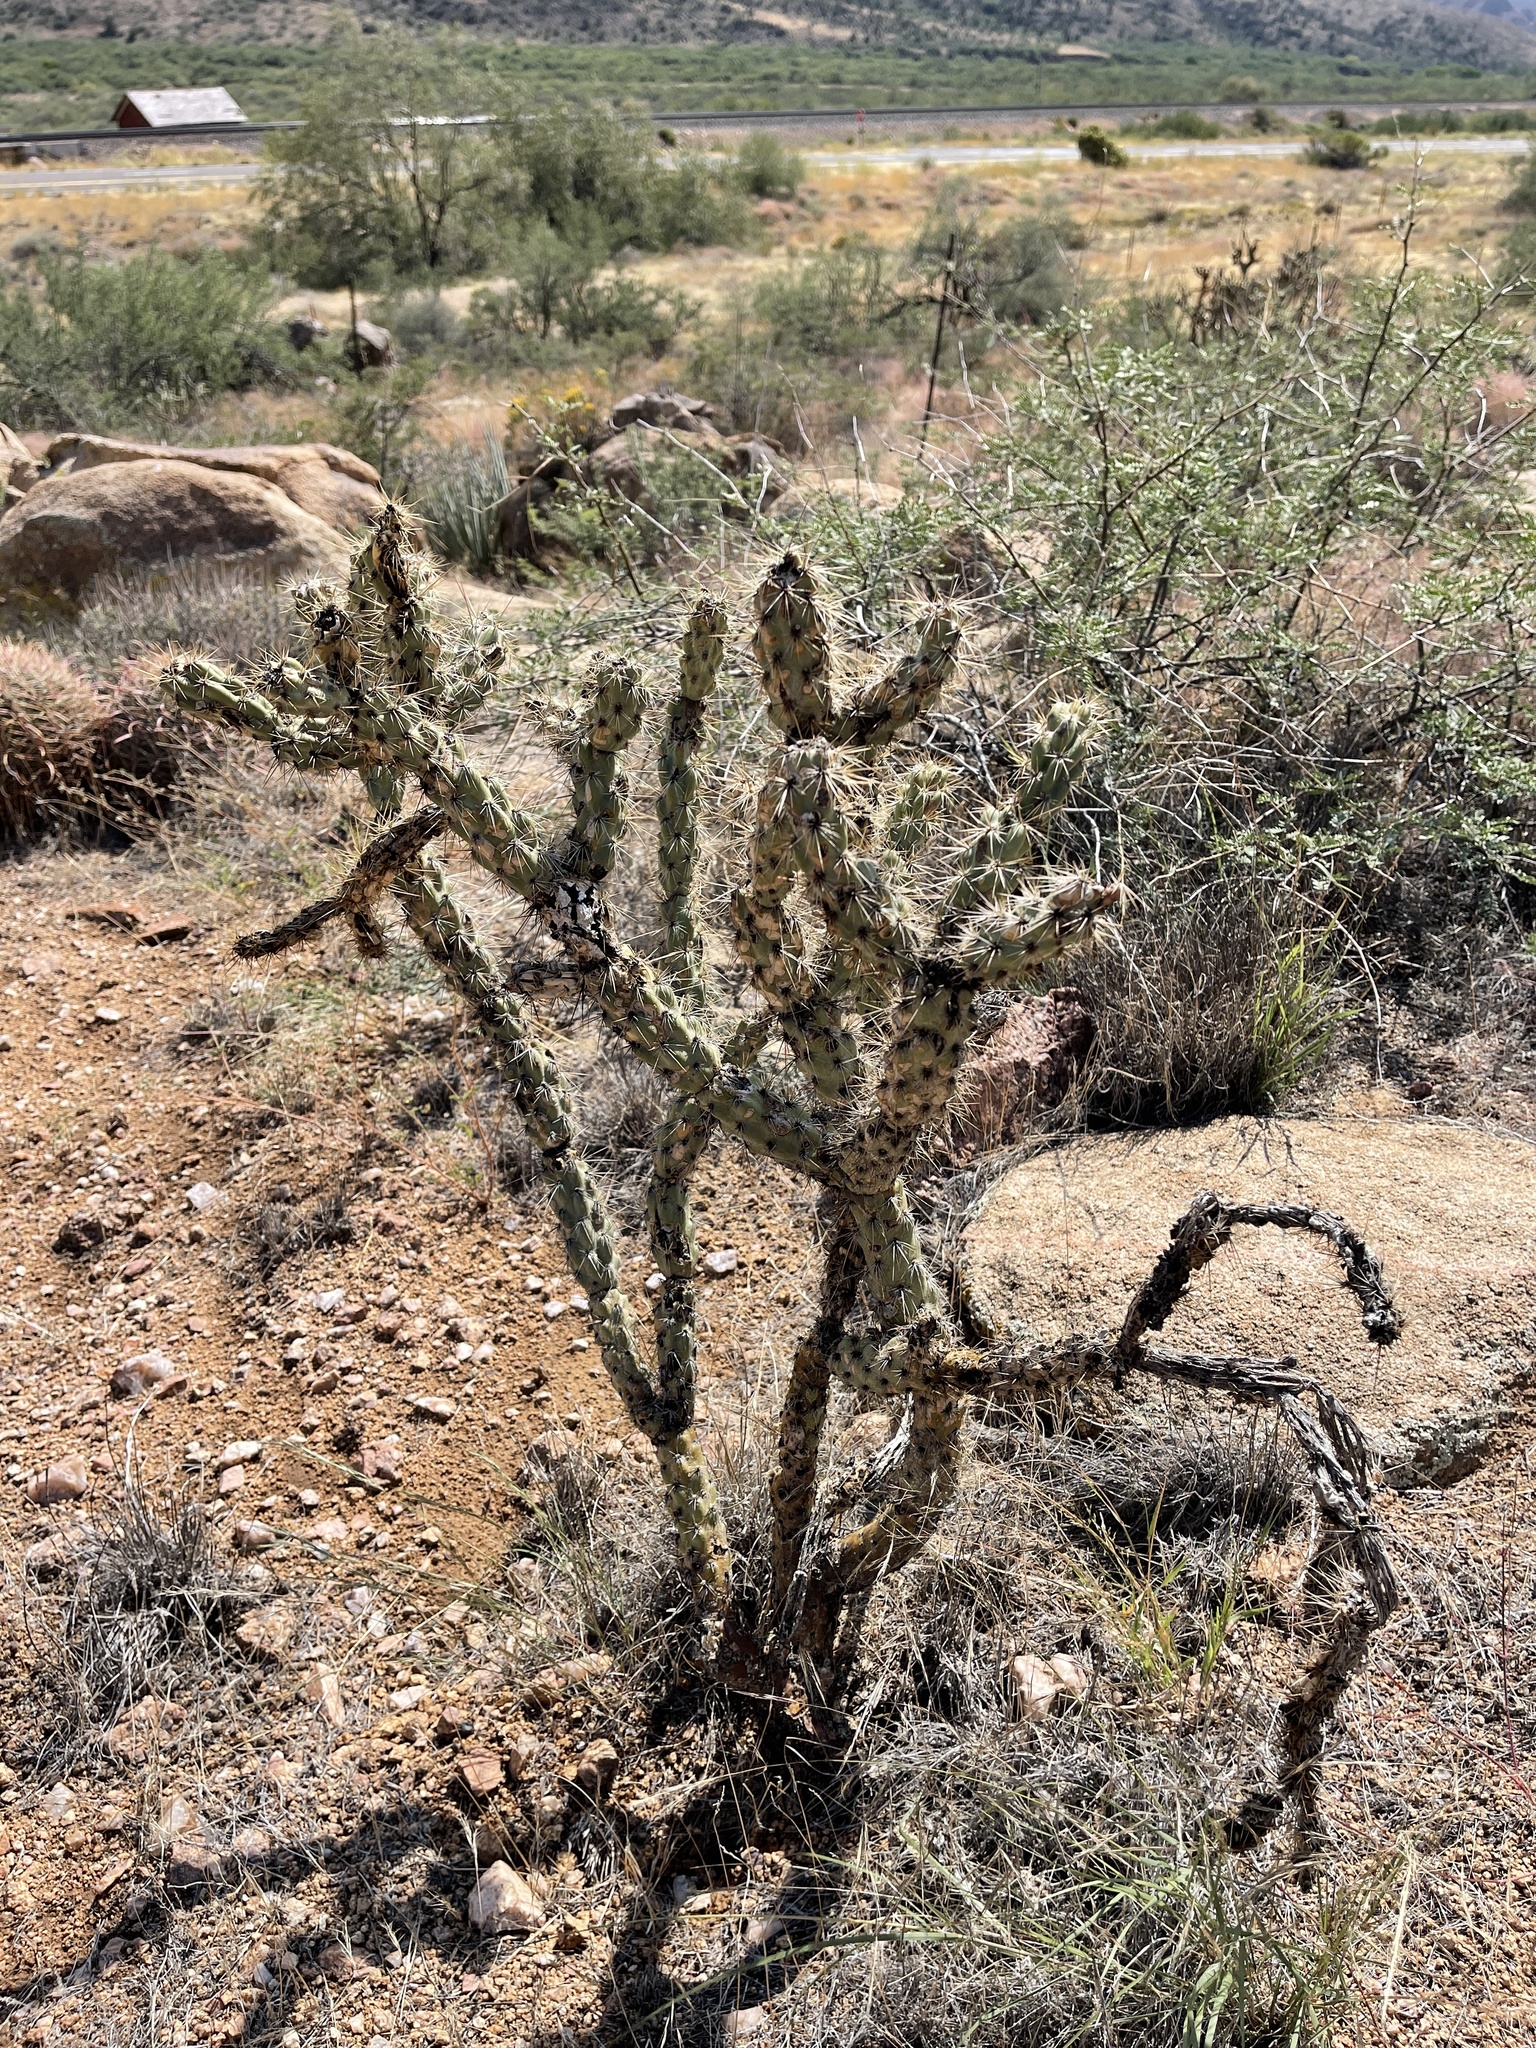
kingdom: Plantae
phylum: Tracheophyta
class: Magnoliopsida
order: Caryophyllales
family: Cactaceae
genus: Cylindropuntia
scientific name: Cylindropuntia acanthocarpa
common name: Buckhorn cholla
